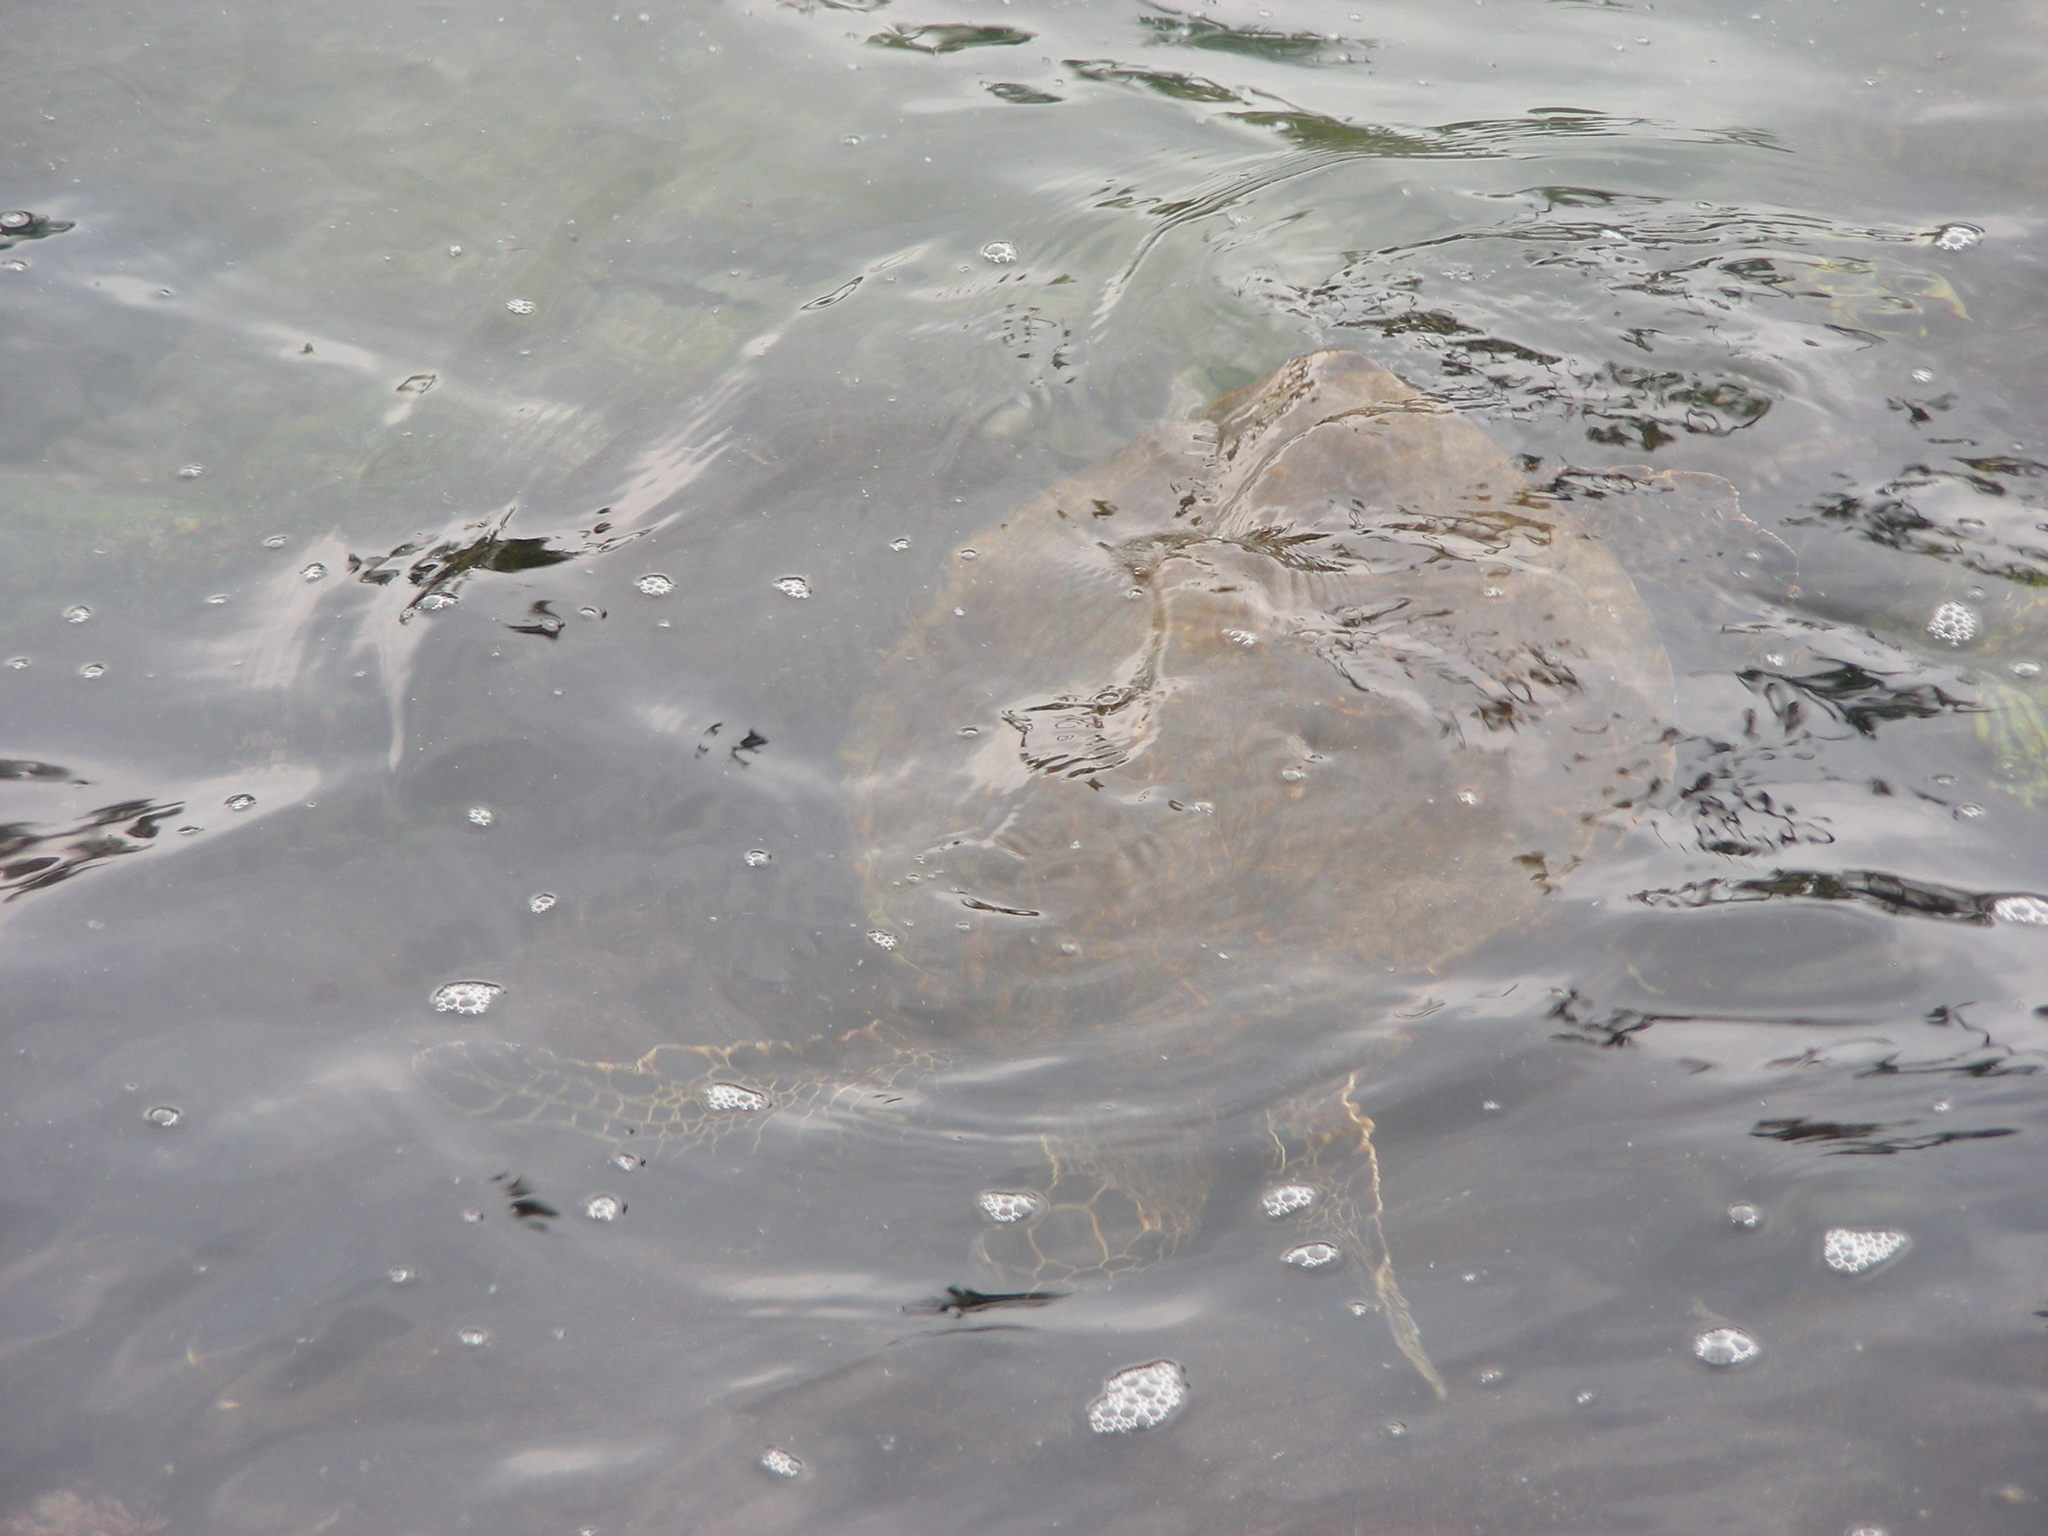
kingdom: Animalia
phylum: Chordata
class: Testudines
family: Cheloniidae
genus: Chelonia
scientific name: Chelonia mydas
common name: Green turtle
